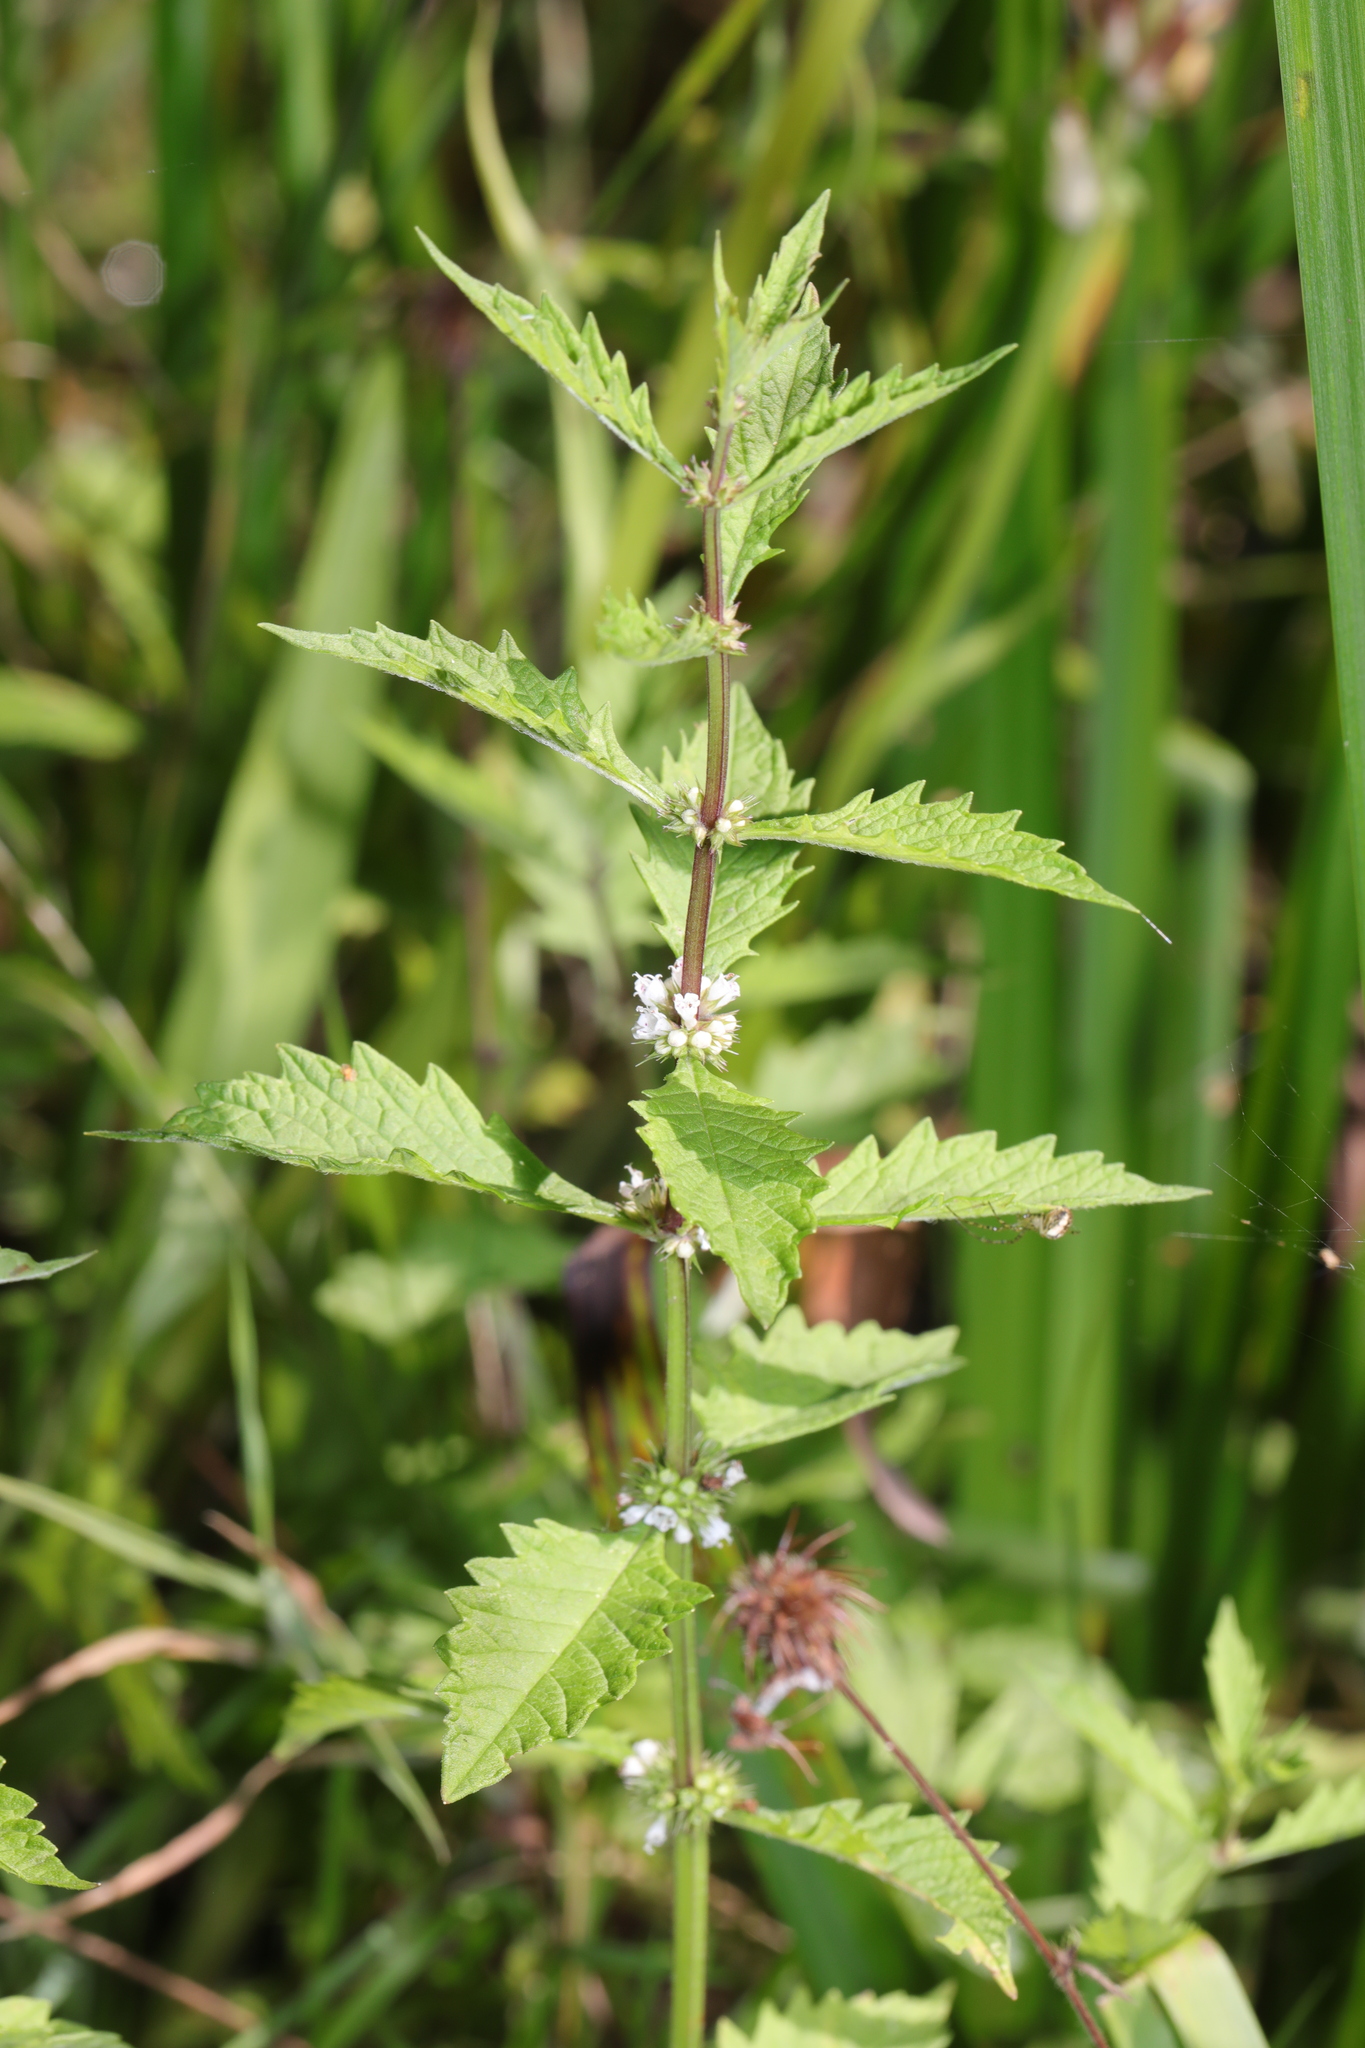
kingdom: Plantae
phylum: Tracheophyta
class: Magnoliopsida
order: Lamiales
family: Lamiaceae
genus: Lycopus
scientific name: Lycopus europaeus
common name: European bugleweed
